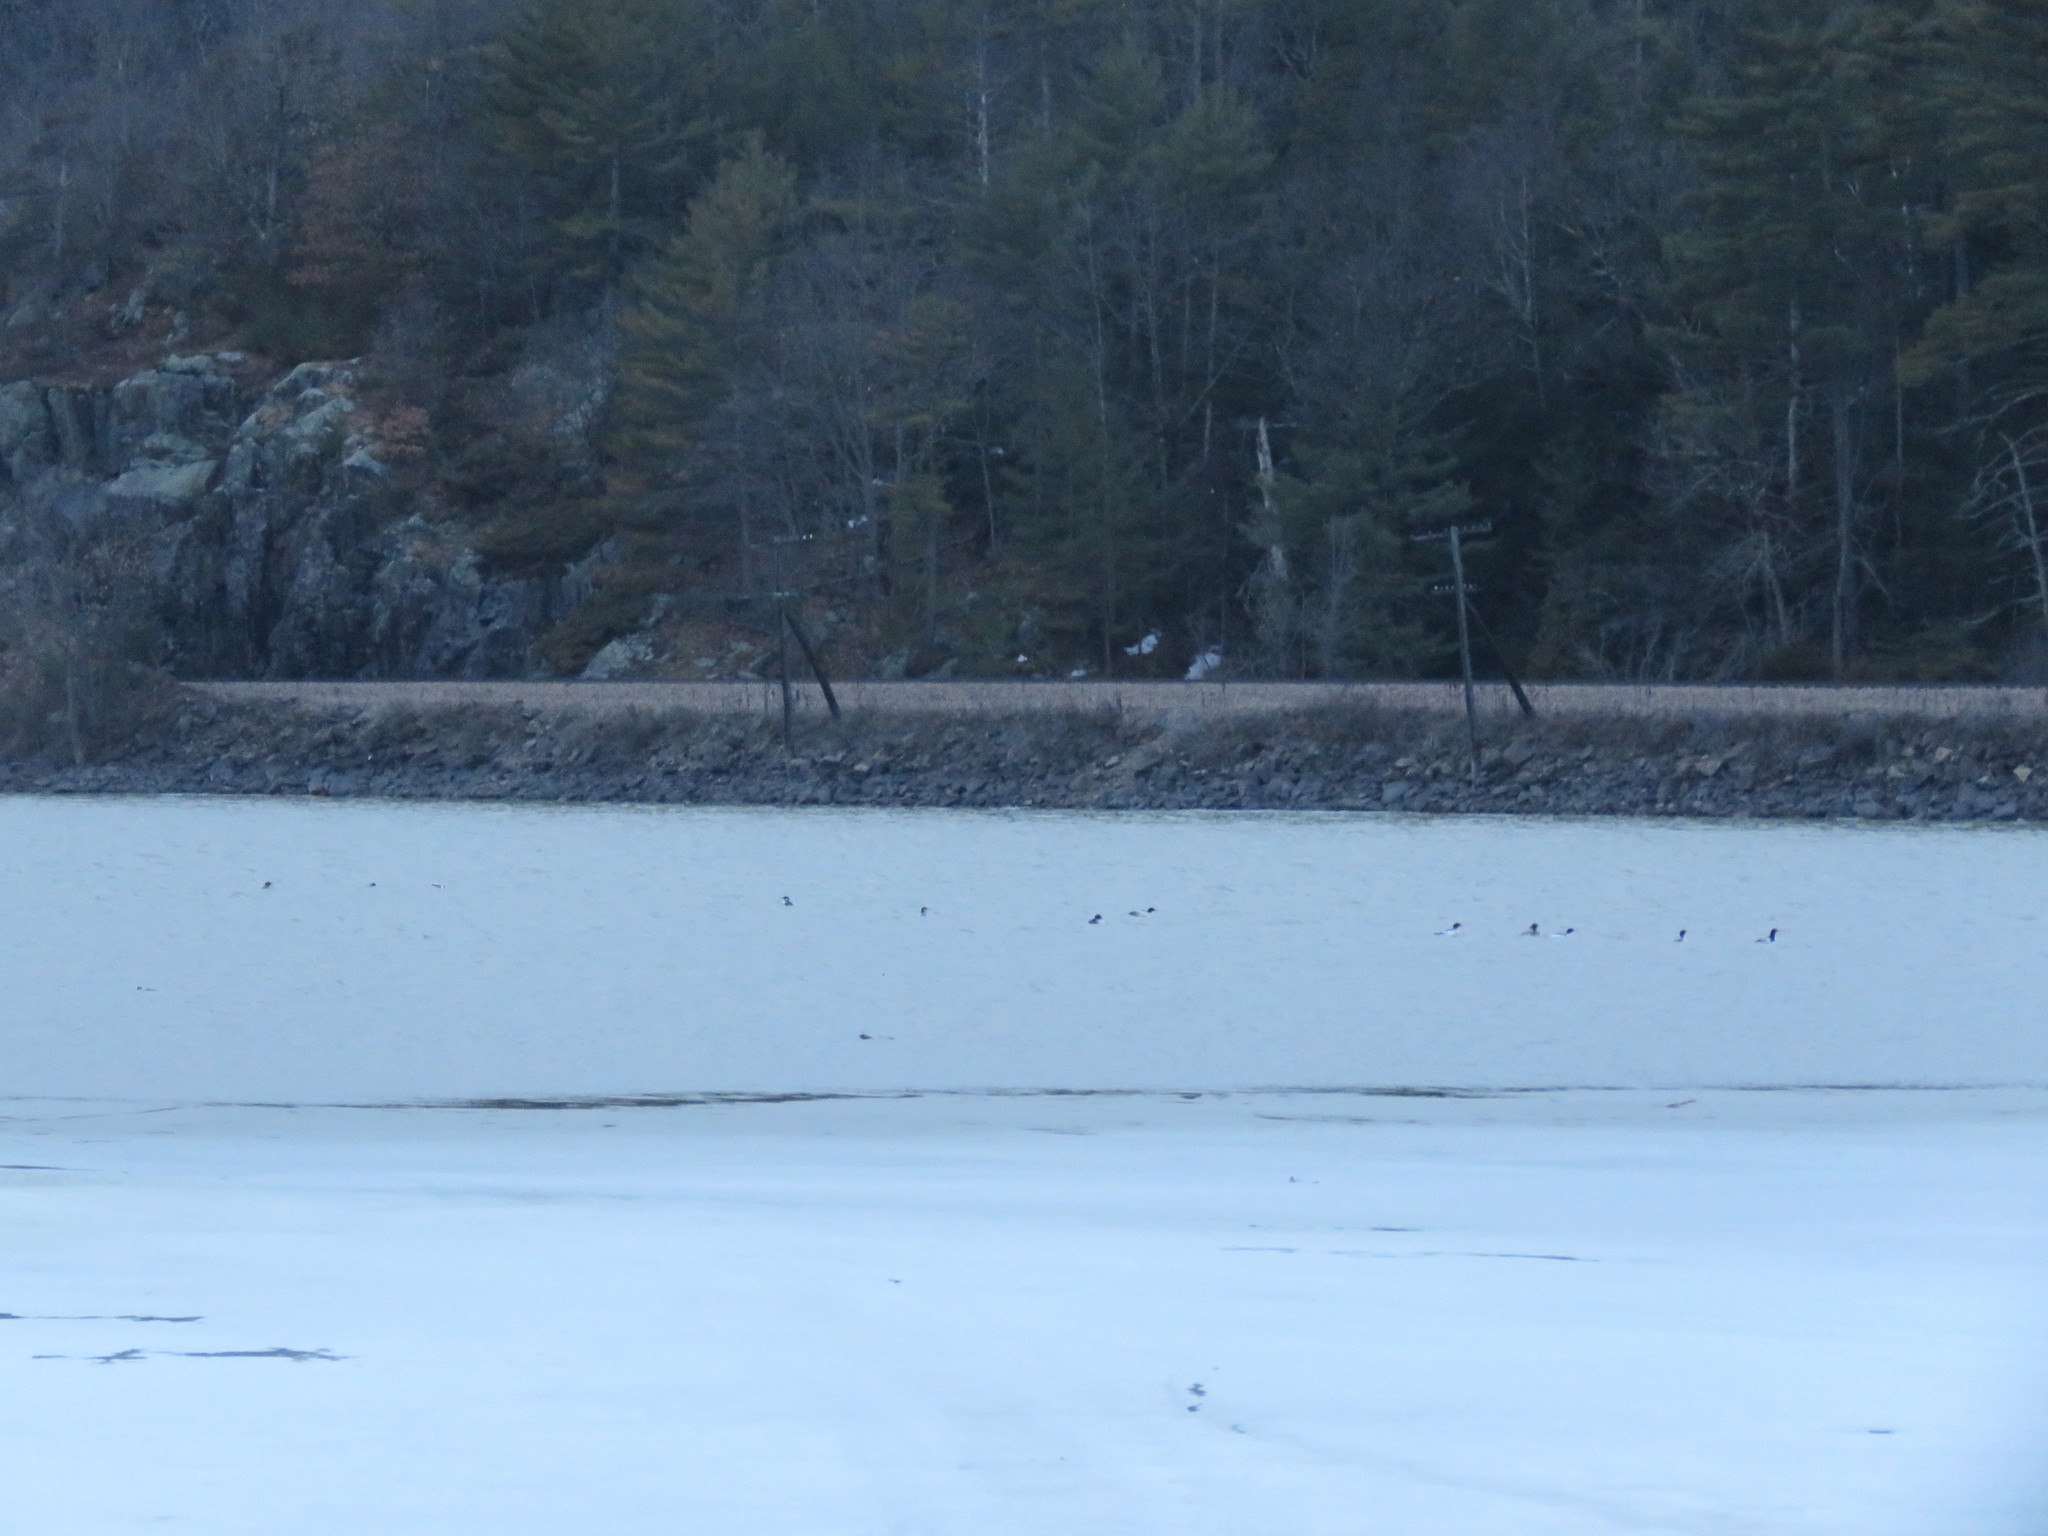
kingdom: Animalia
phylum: Chordata
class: Aves
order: Anseriformes
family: Anatidae
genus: Mergus
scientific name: Mergus merganser
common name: Common merganser
